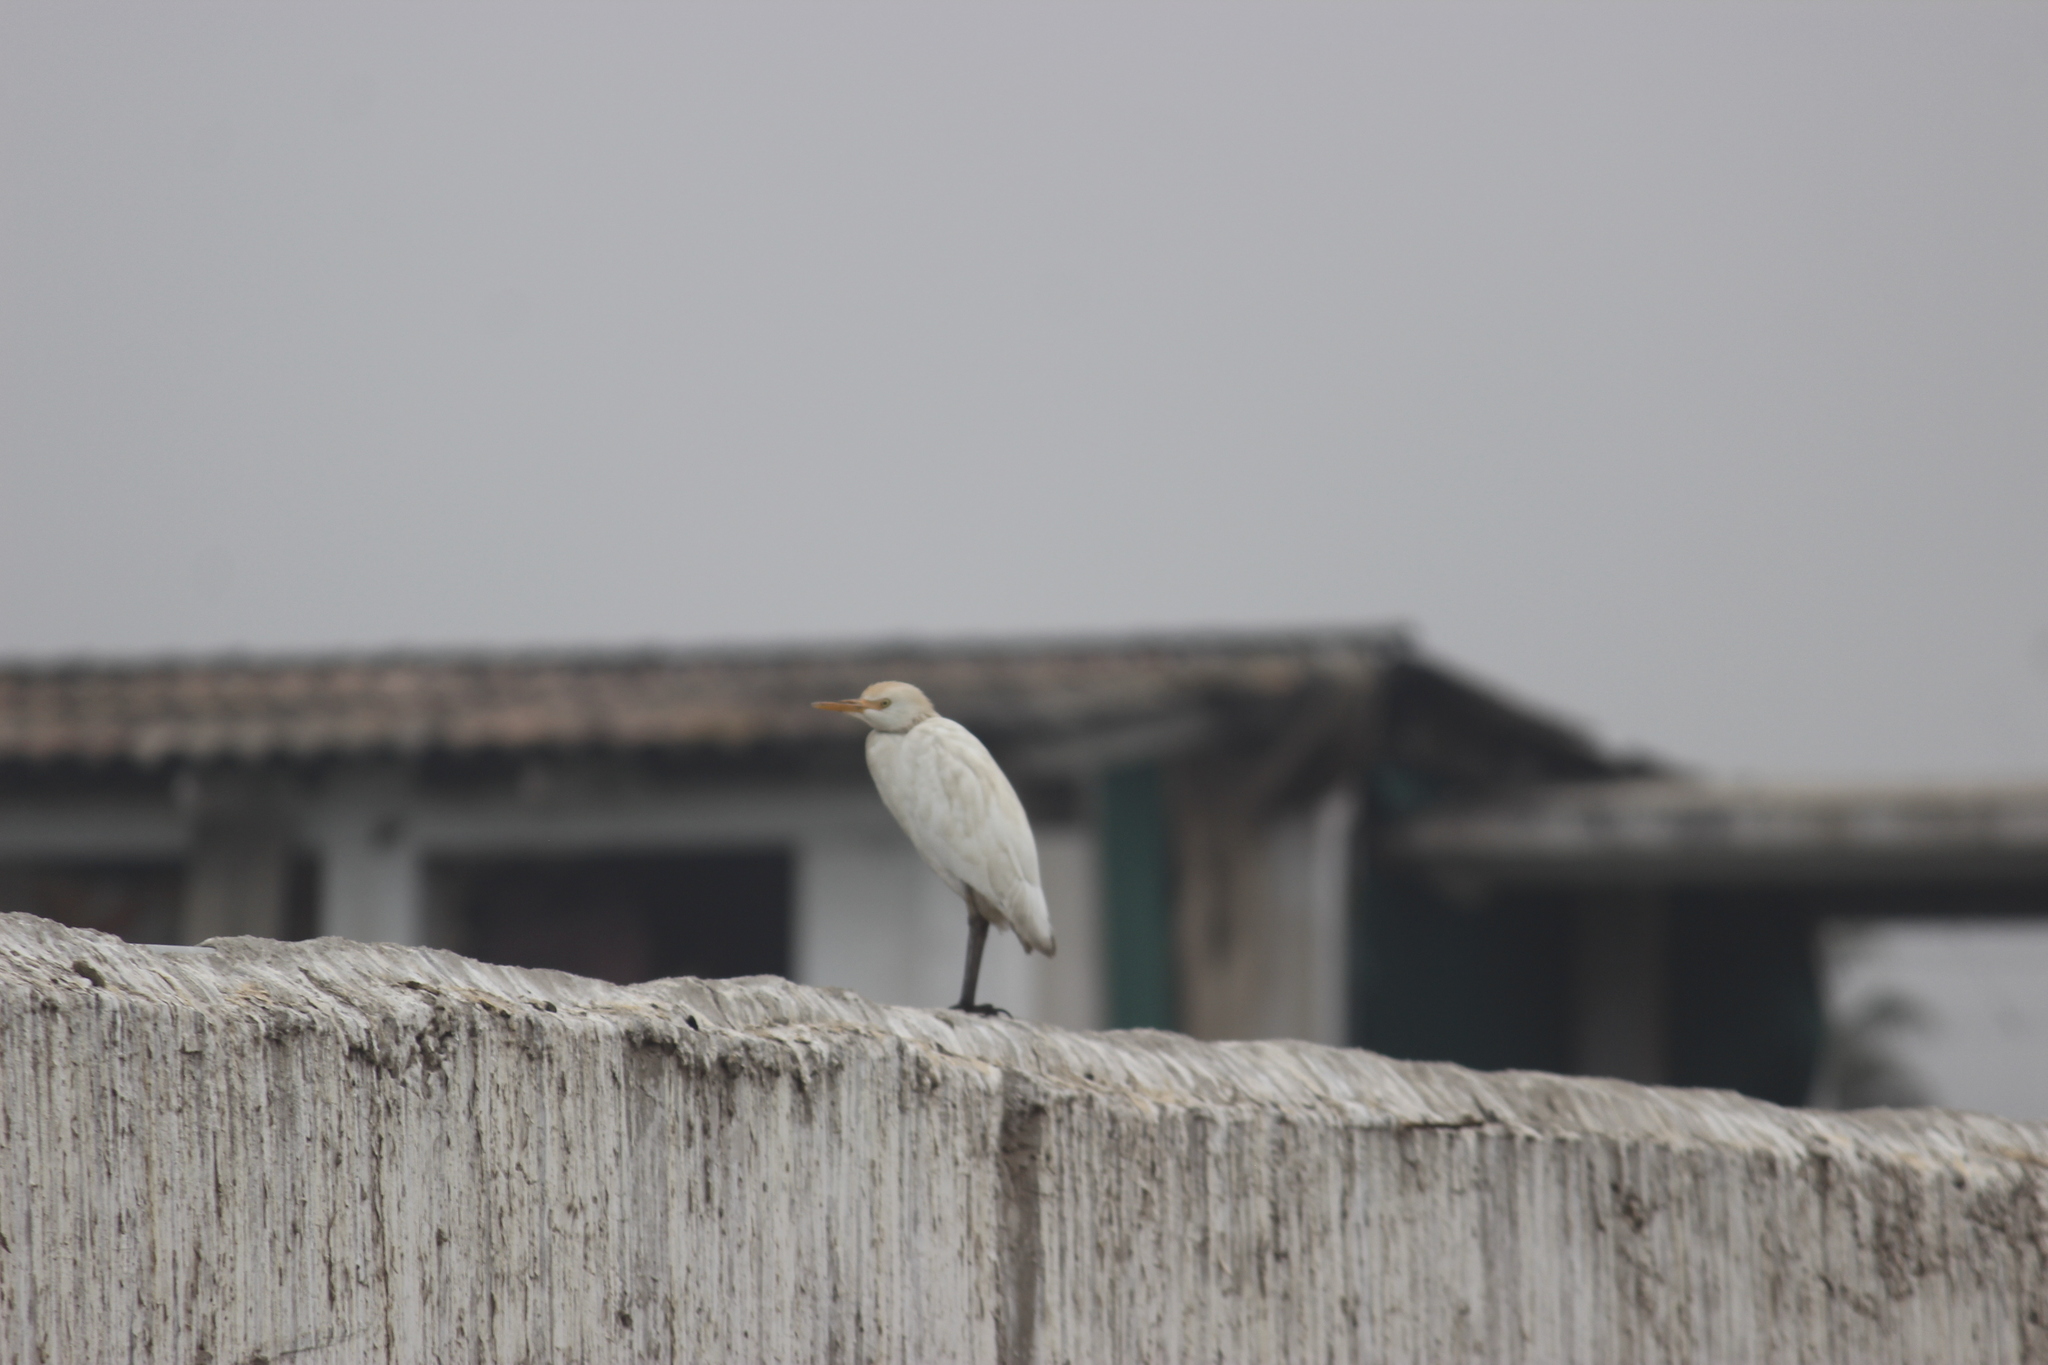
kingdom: Animalia
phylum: Chordata
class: Aves
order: Pelecaniformes
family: Ardeidae
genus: Bubulcus
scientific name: Bubulcus ibis
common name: Cattle egret
